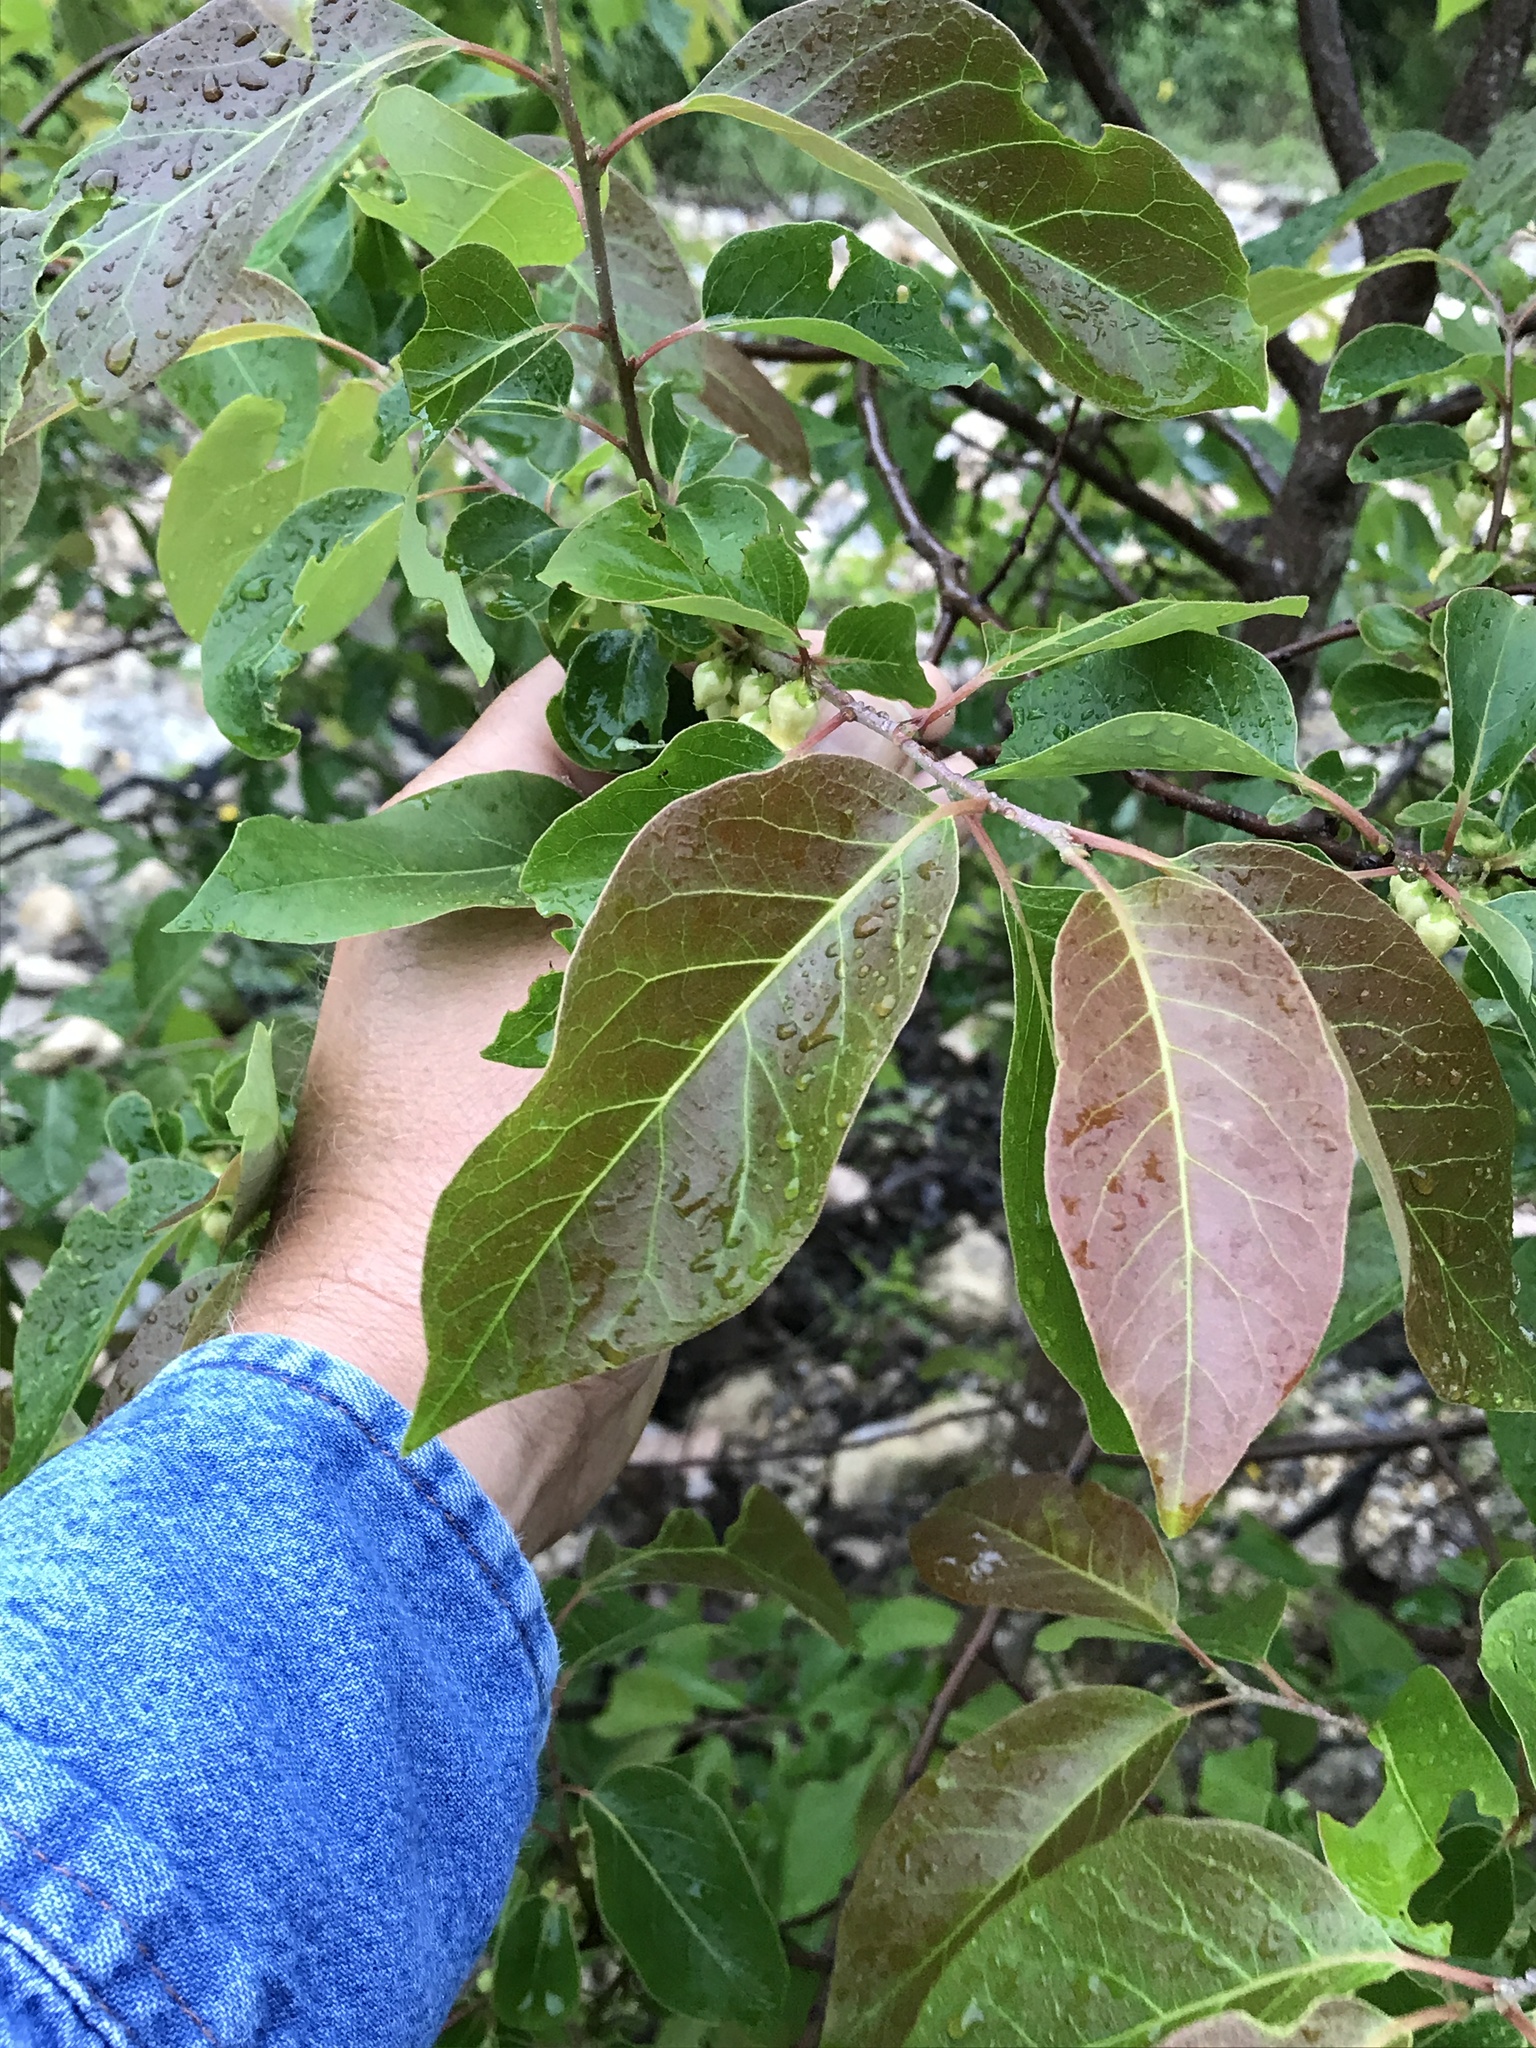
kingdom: Plantae
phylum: Tracheophyta
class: Magnoliopsida
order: Ericales
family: Ebenaceae
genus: Diospyros
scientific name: Diospyros virginiana
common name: Persimmon
